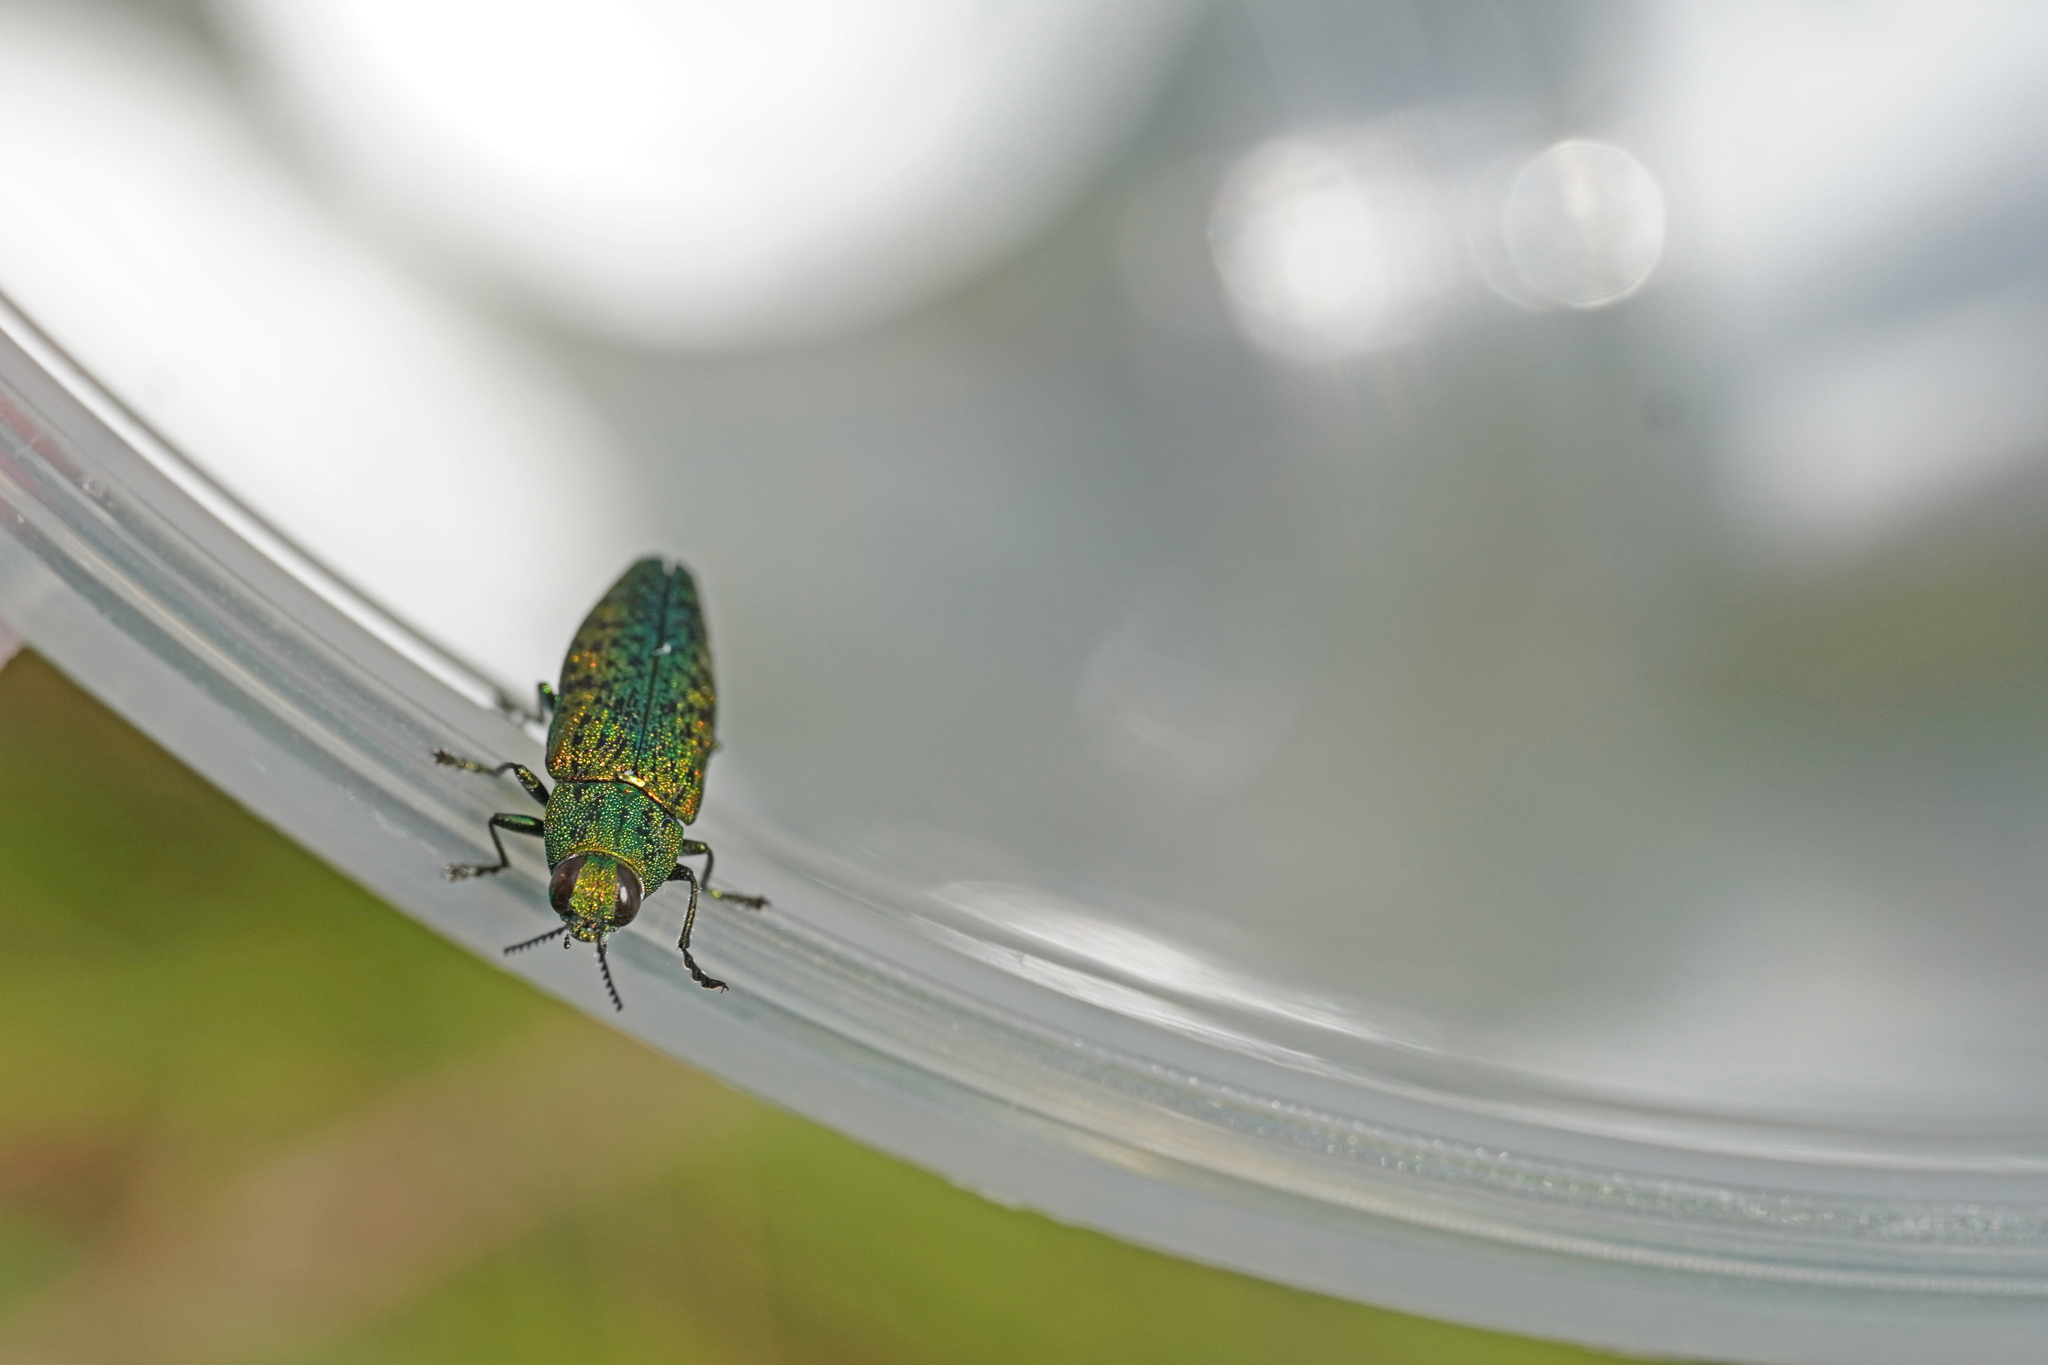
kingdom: Animalia
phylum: Arthropoda
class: Insecta
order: Coleoptera
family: Buprestidae
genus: Lamprodila
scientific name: Lamprodila decipiens
